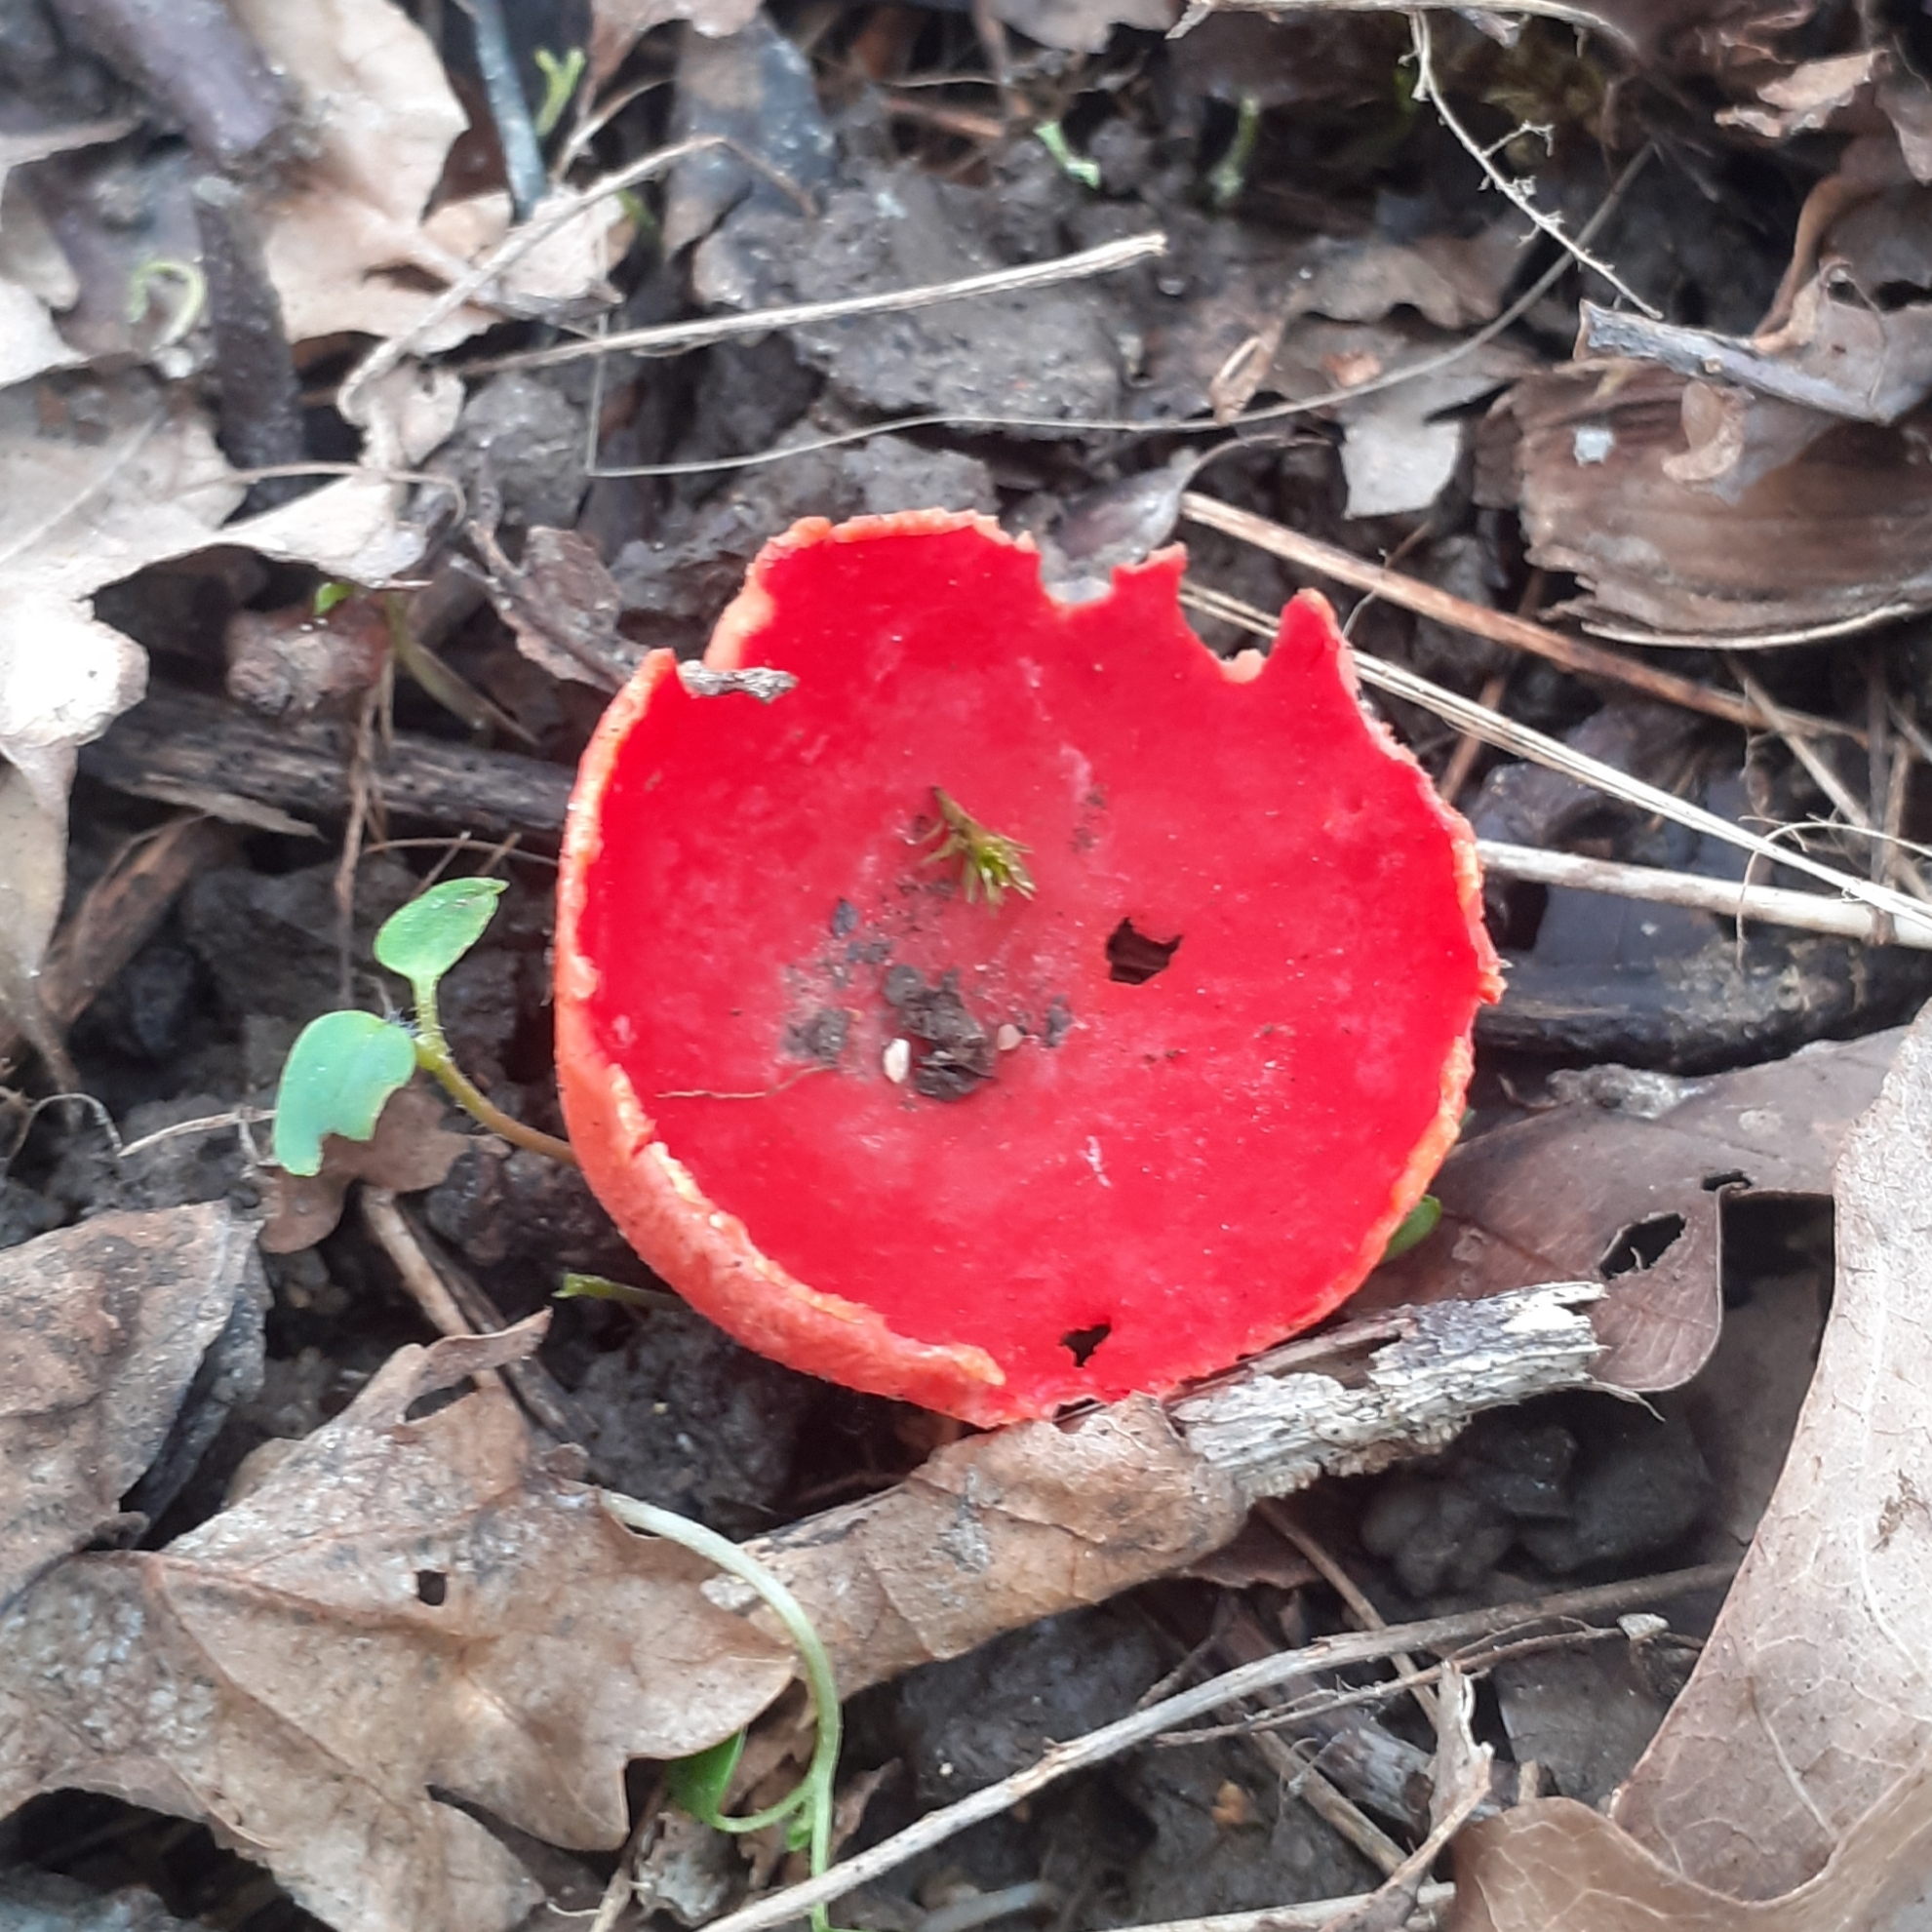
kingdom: Fungi
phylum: Ascomycota
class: Pezizomycetes
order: Pezizales
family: Sarcoscyphaceae
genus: Sarcoscypha
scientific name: Sarcoscypha
